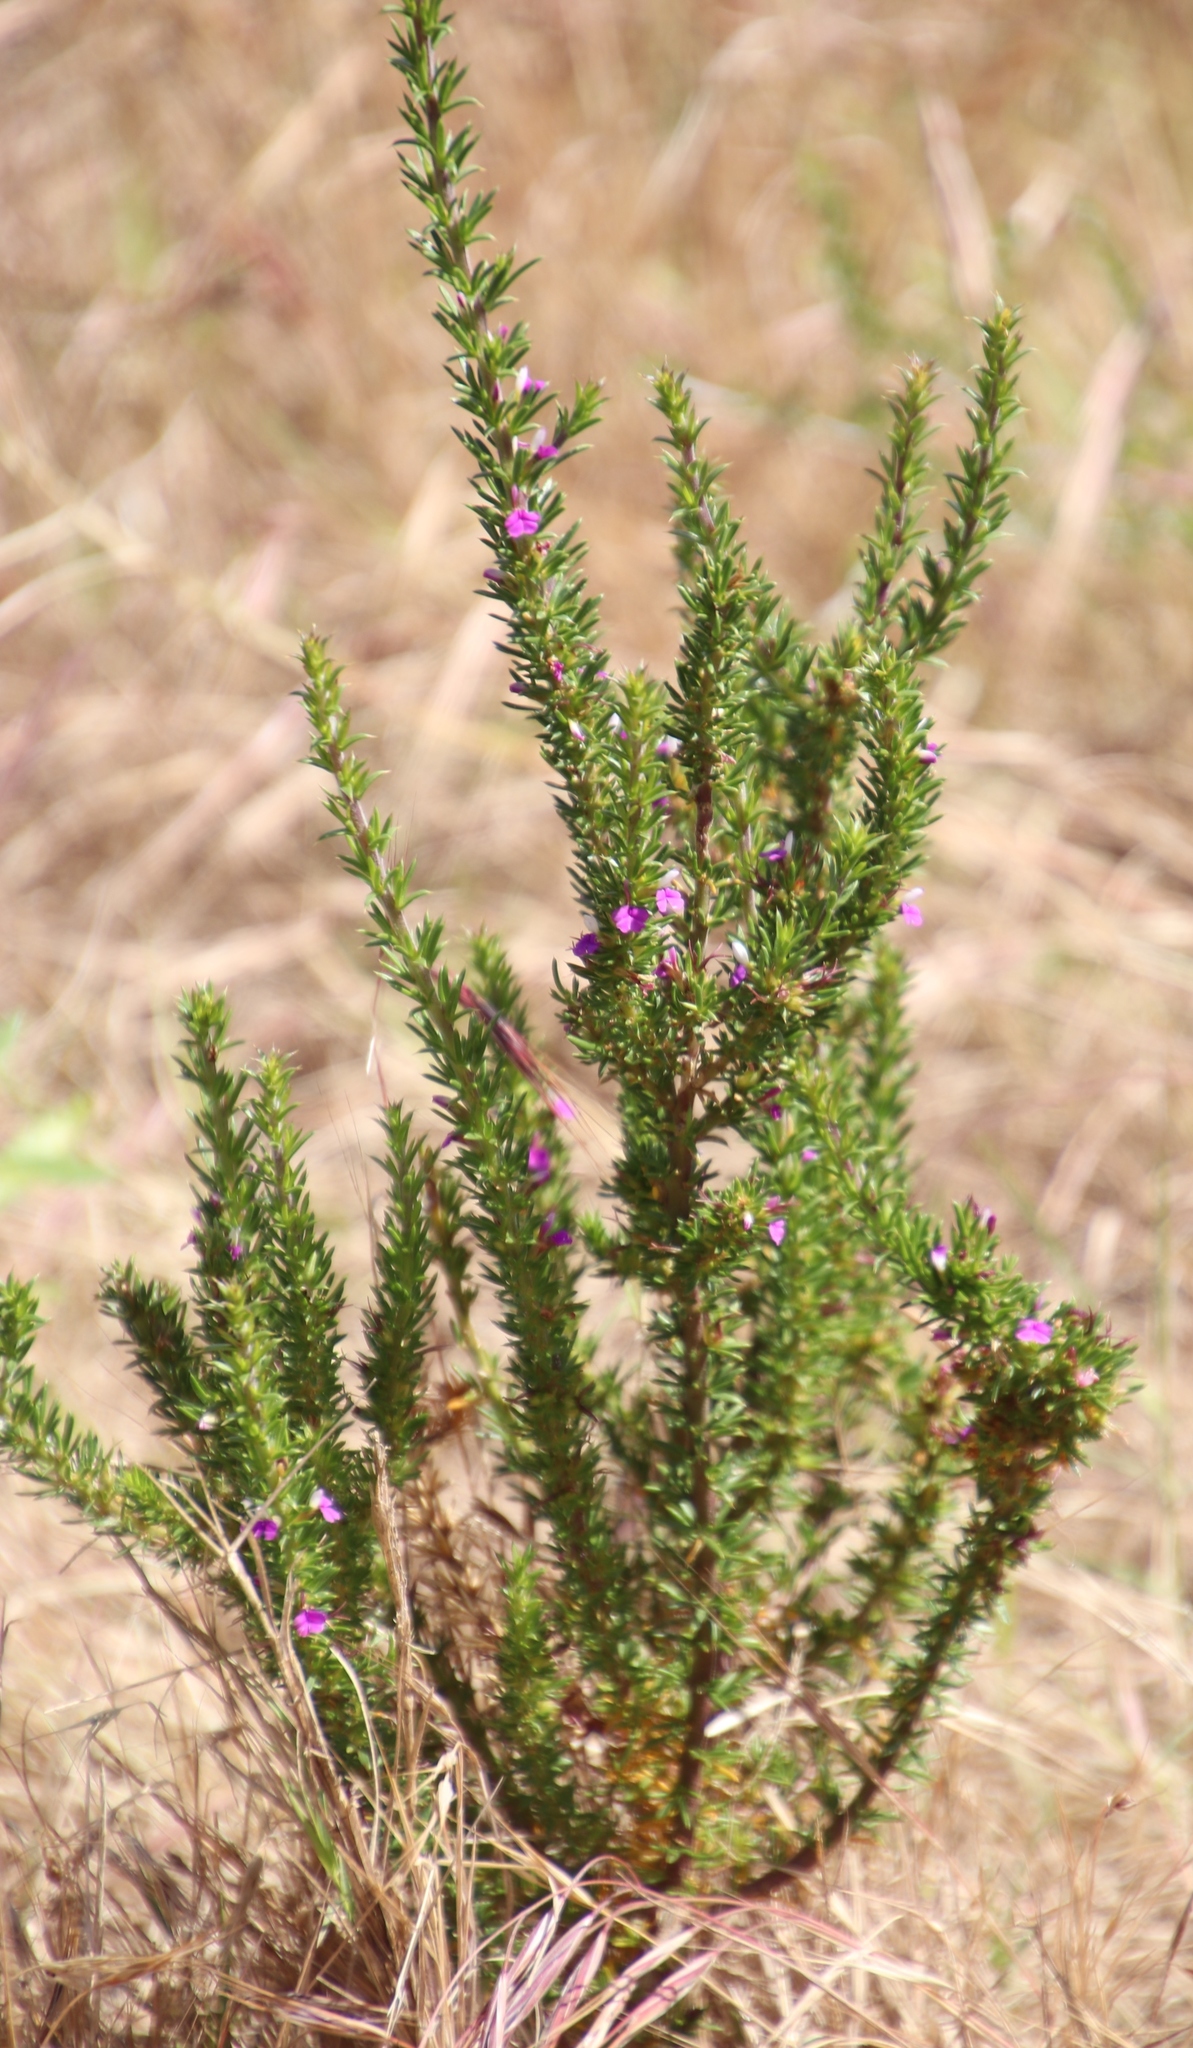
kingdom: Plantae
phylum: Tracheophyta
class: Magnoliopsida
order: Fabales
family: Polygalaceae
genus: Muraltia
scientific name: Muraltia heisteria
